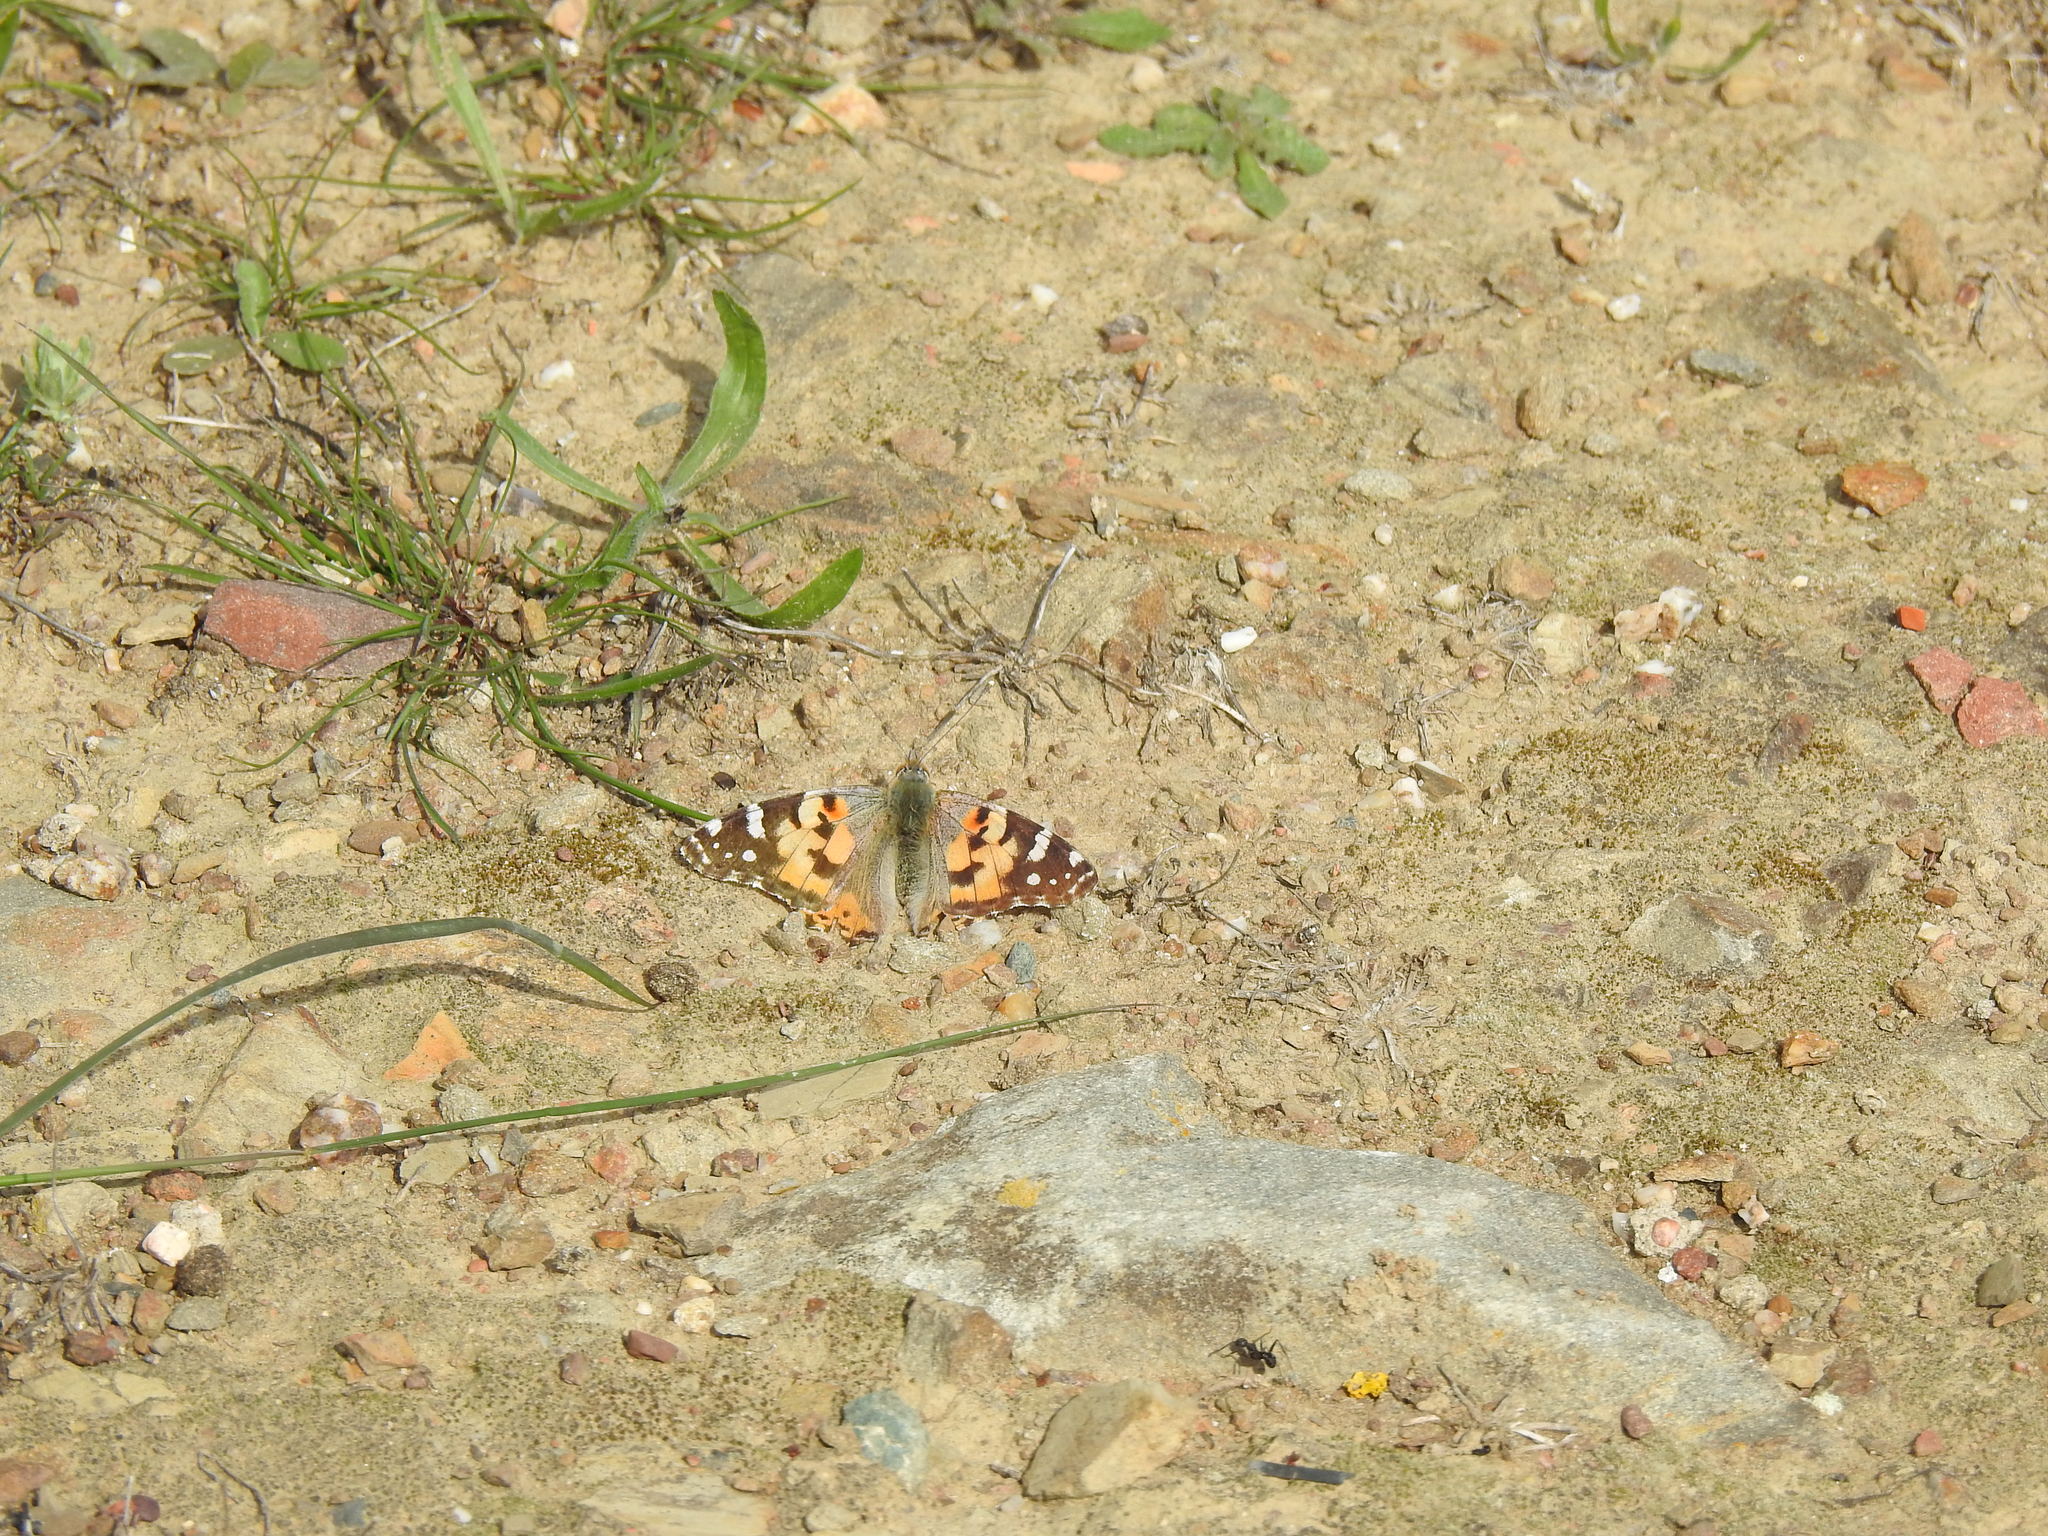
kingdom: Animalia
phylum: Arthropoda
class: Insecta
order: Lepidoptera
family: Nymphalidae
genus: Vanessa
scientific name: Vanessa cardui
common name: Painted lady
